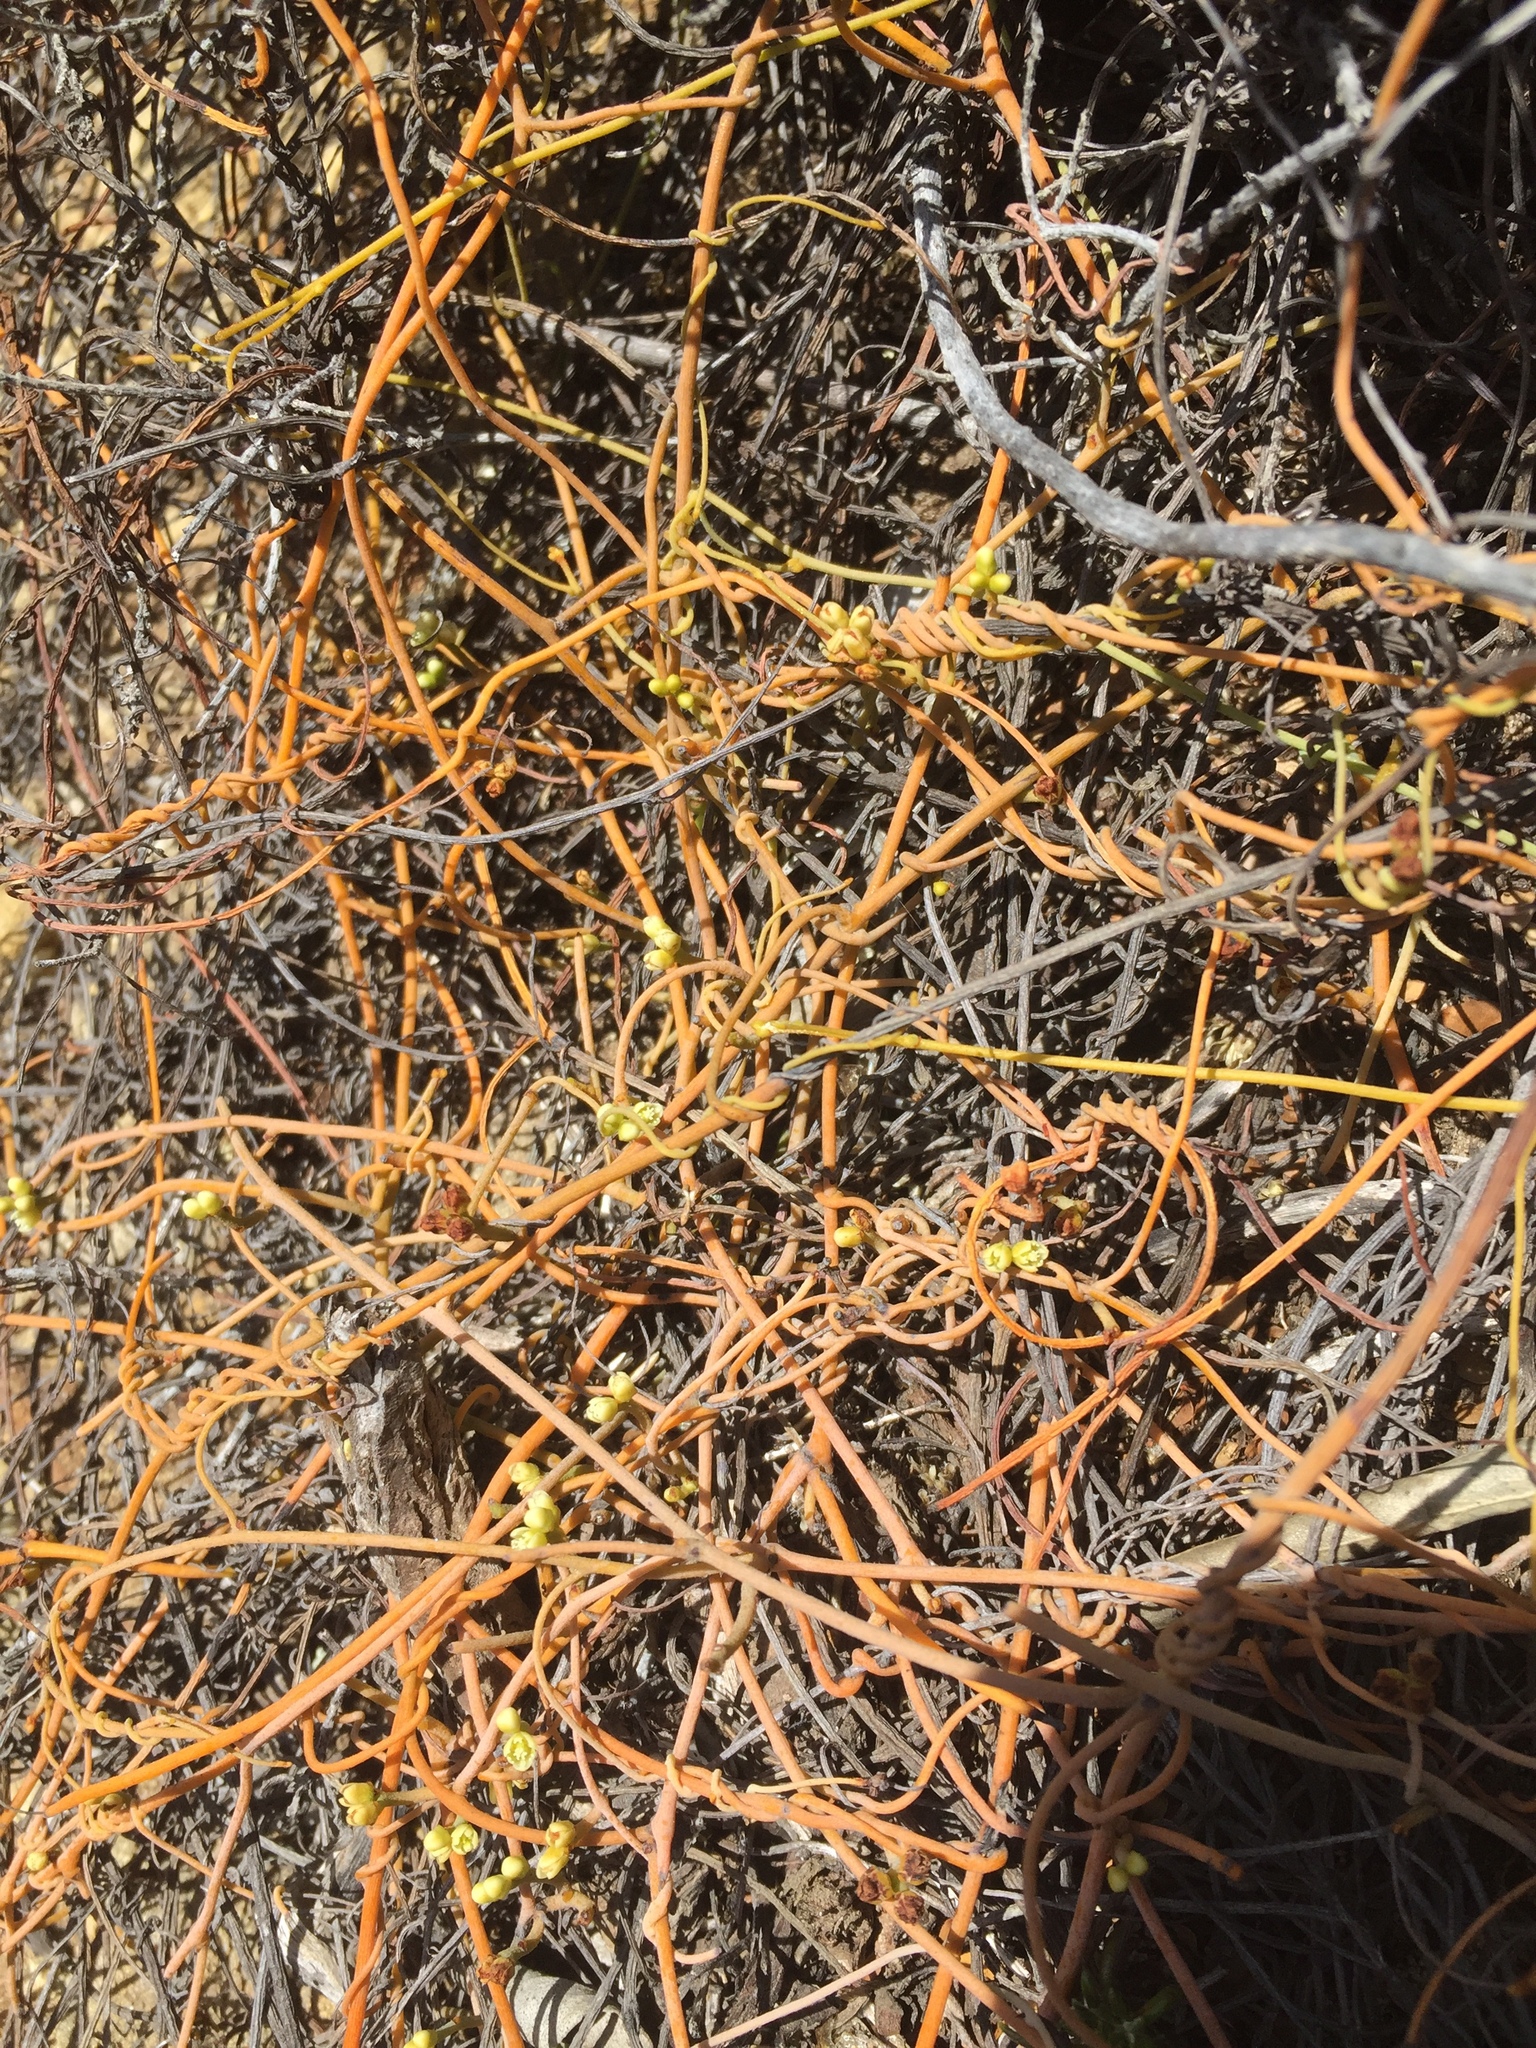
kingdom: Plantae
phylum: Tracheophyta
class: Magnoliopsida
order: Laurales
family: Lauraceae
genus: Cassytha
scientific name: Cassytha ciliolata
